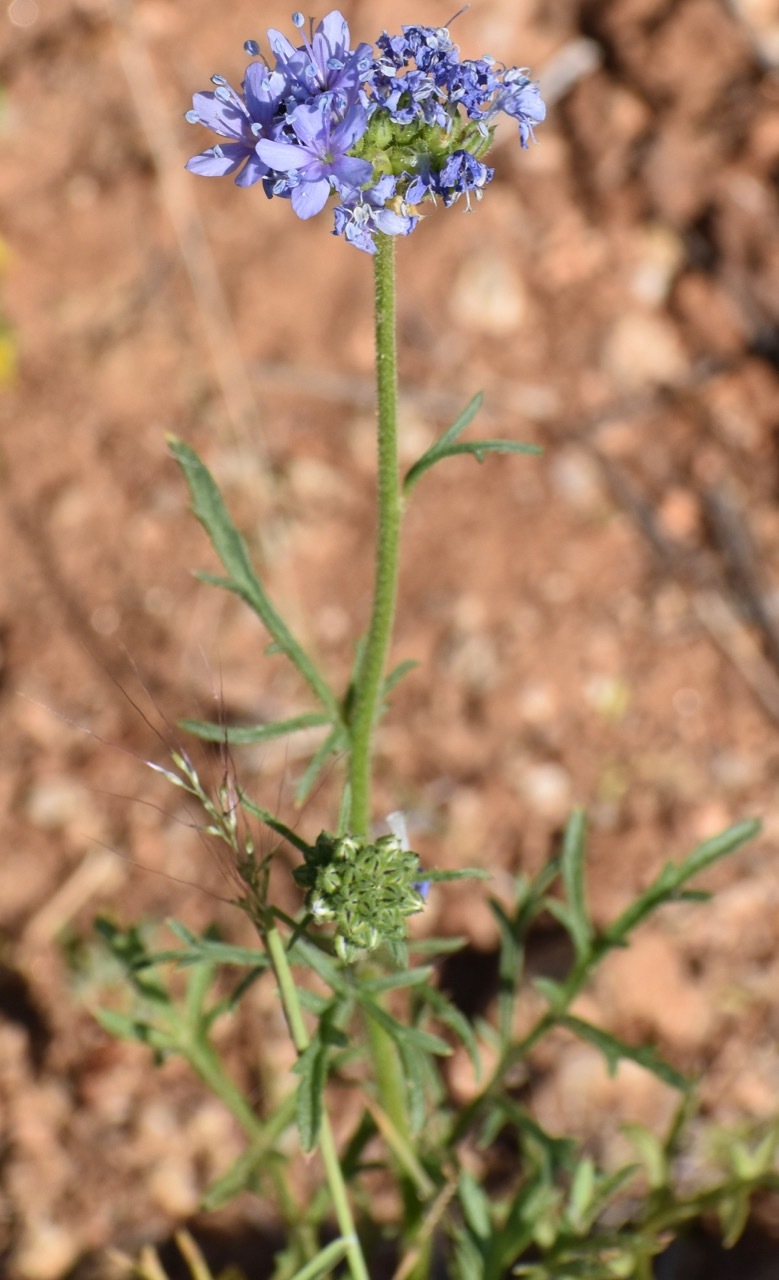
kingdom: Plantae
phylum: Tracheophyta
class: Magnoliopsida
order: Ericales
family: Polemoniaceae
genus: Gilia
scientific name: Gilia capitata
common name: Bluehead gilia
